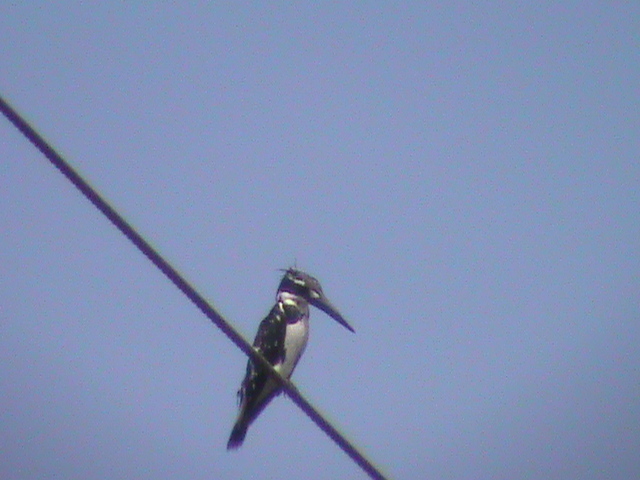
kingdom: Animalia
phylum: Chordata
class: Aves
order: Coraciiformes
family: Alcedinidae
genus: Ceryle
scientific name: Ceryle rudis
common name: Pied kingfisher
